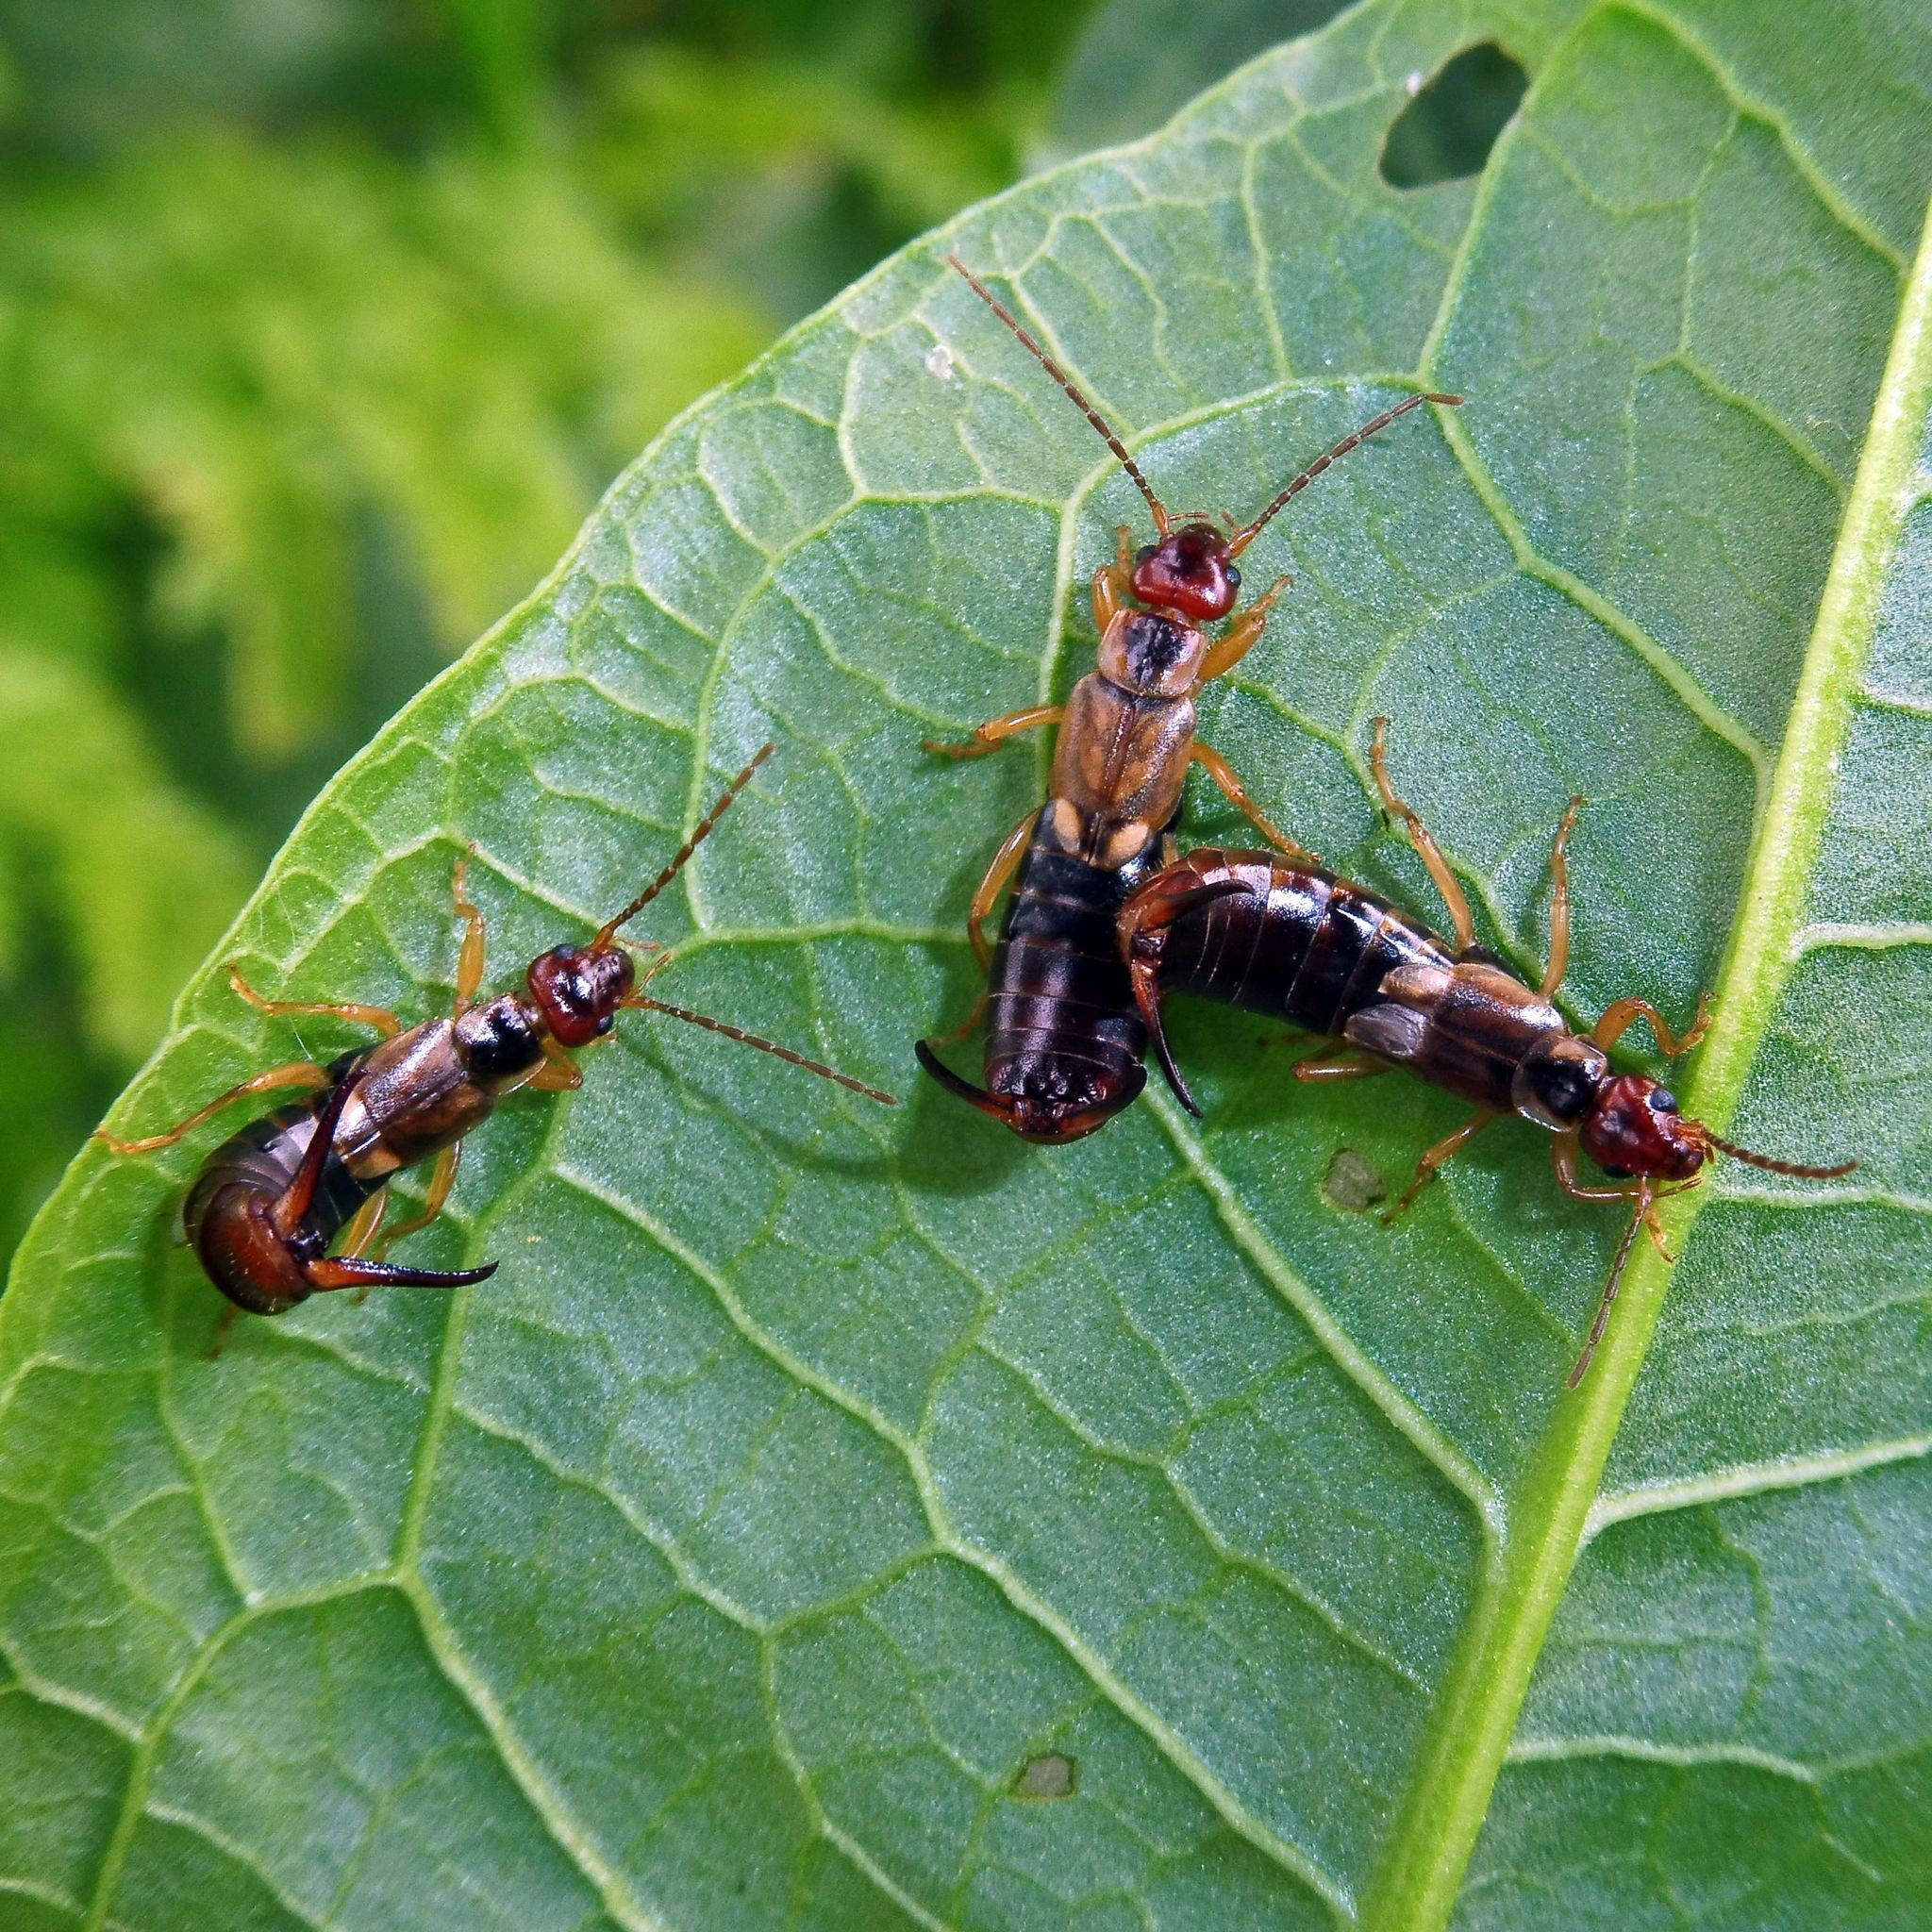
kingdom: Animalia
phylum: Arthropoda
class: Insecta
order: Dermaptera
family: Forficulidae
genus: Forficula
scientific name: Forficula
